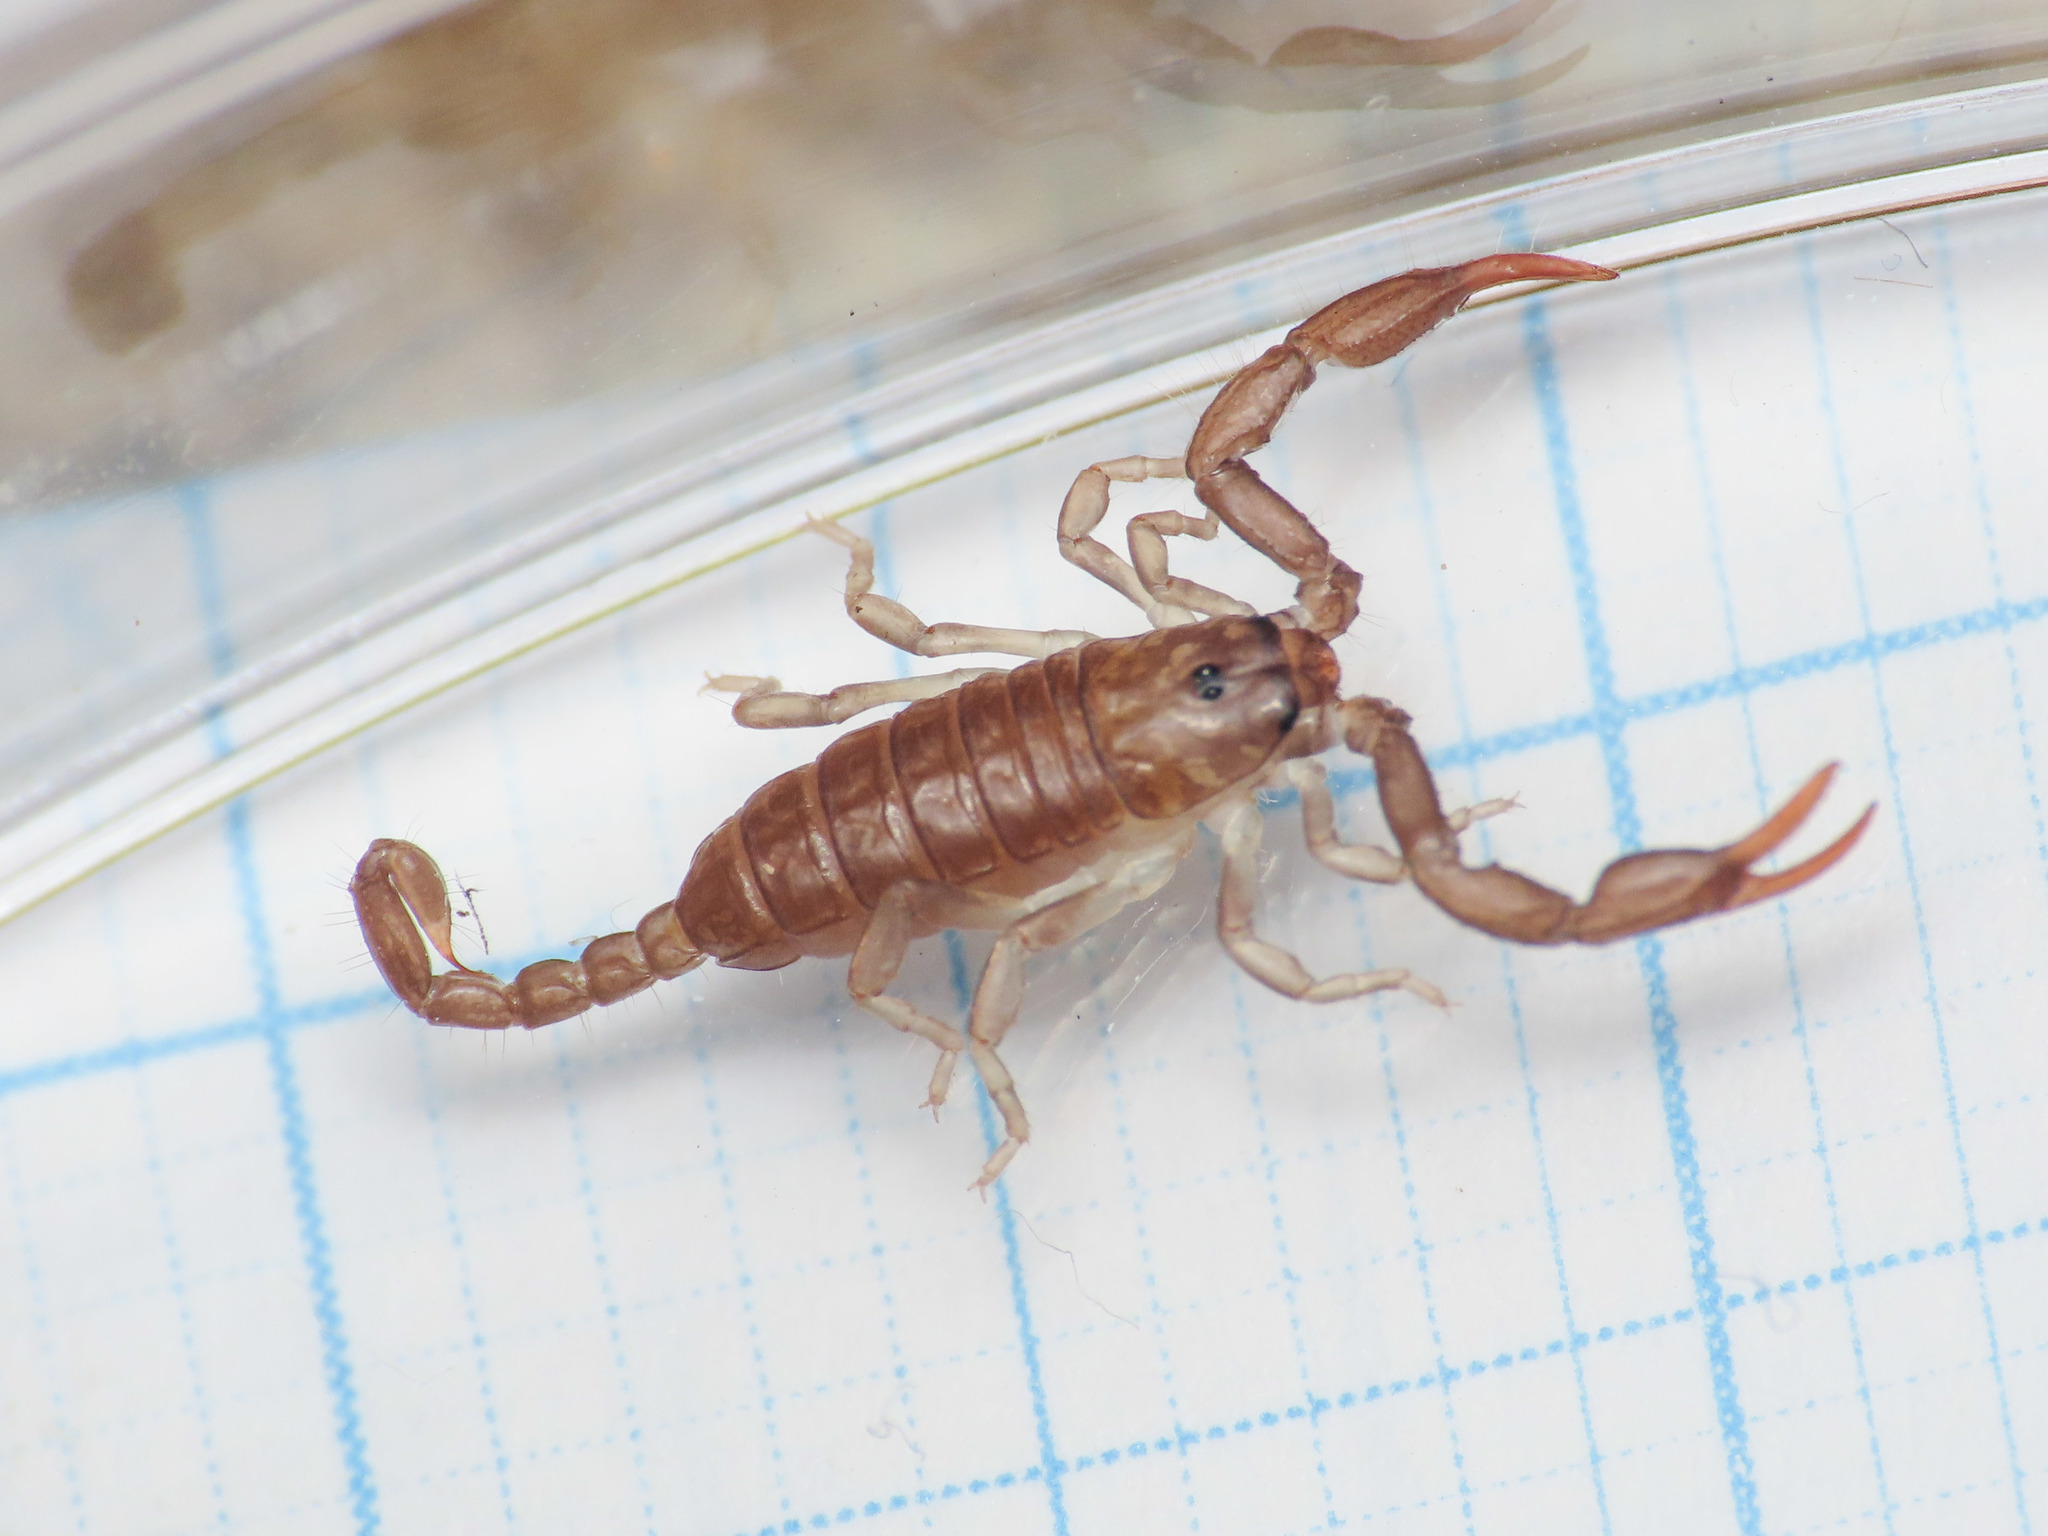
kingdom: Animalia
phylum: Arthropoda
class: Arachnida
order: Scorpiones
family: Euscorpiidae
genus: Euscorpius
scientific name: Euscorpius garganicus
